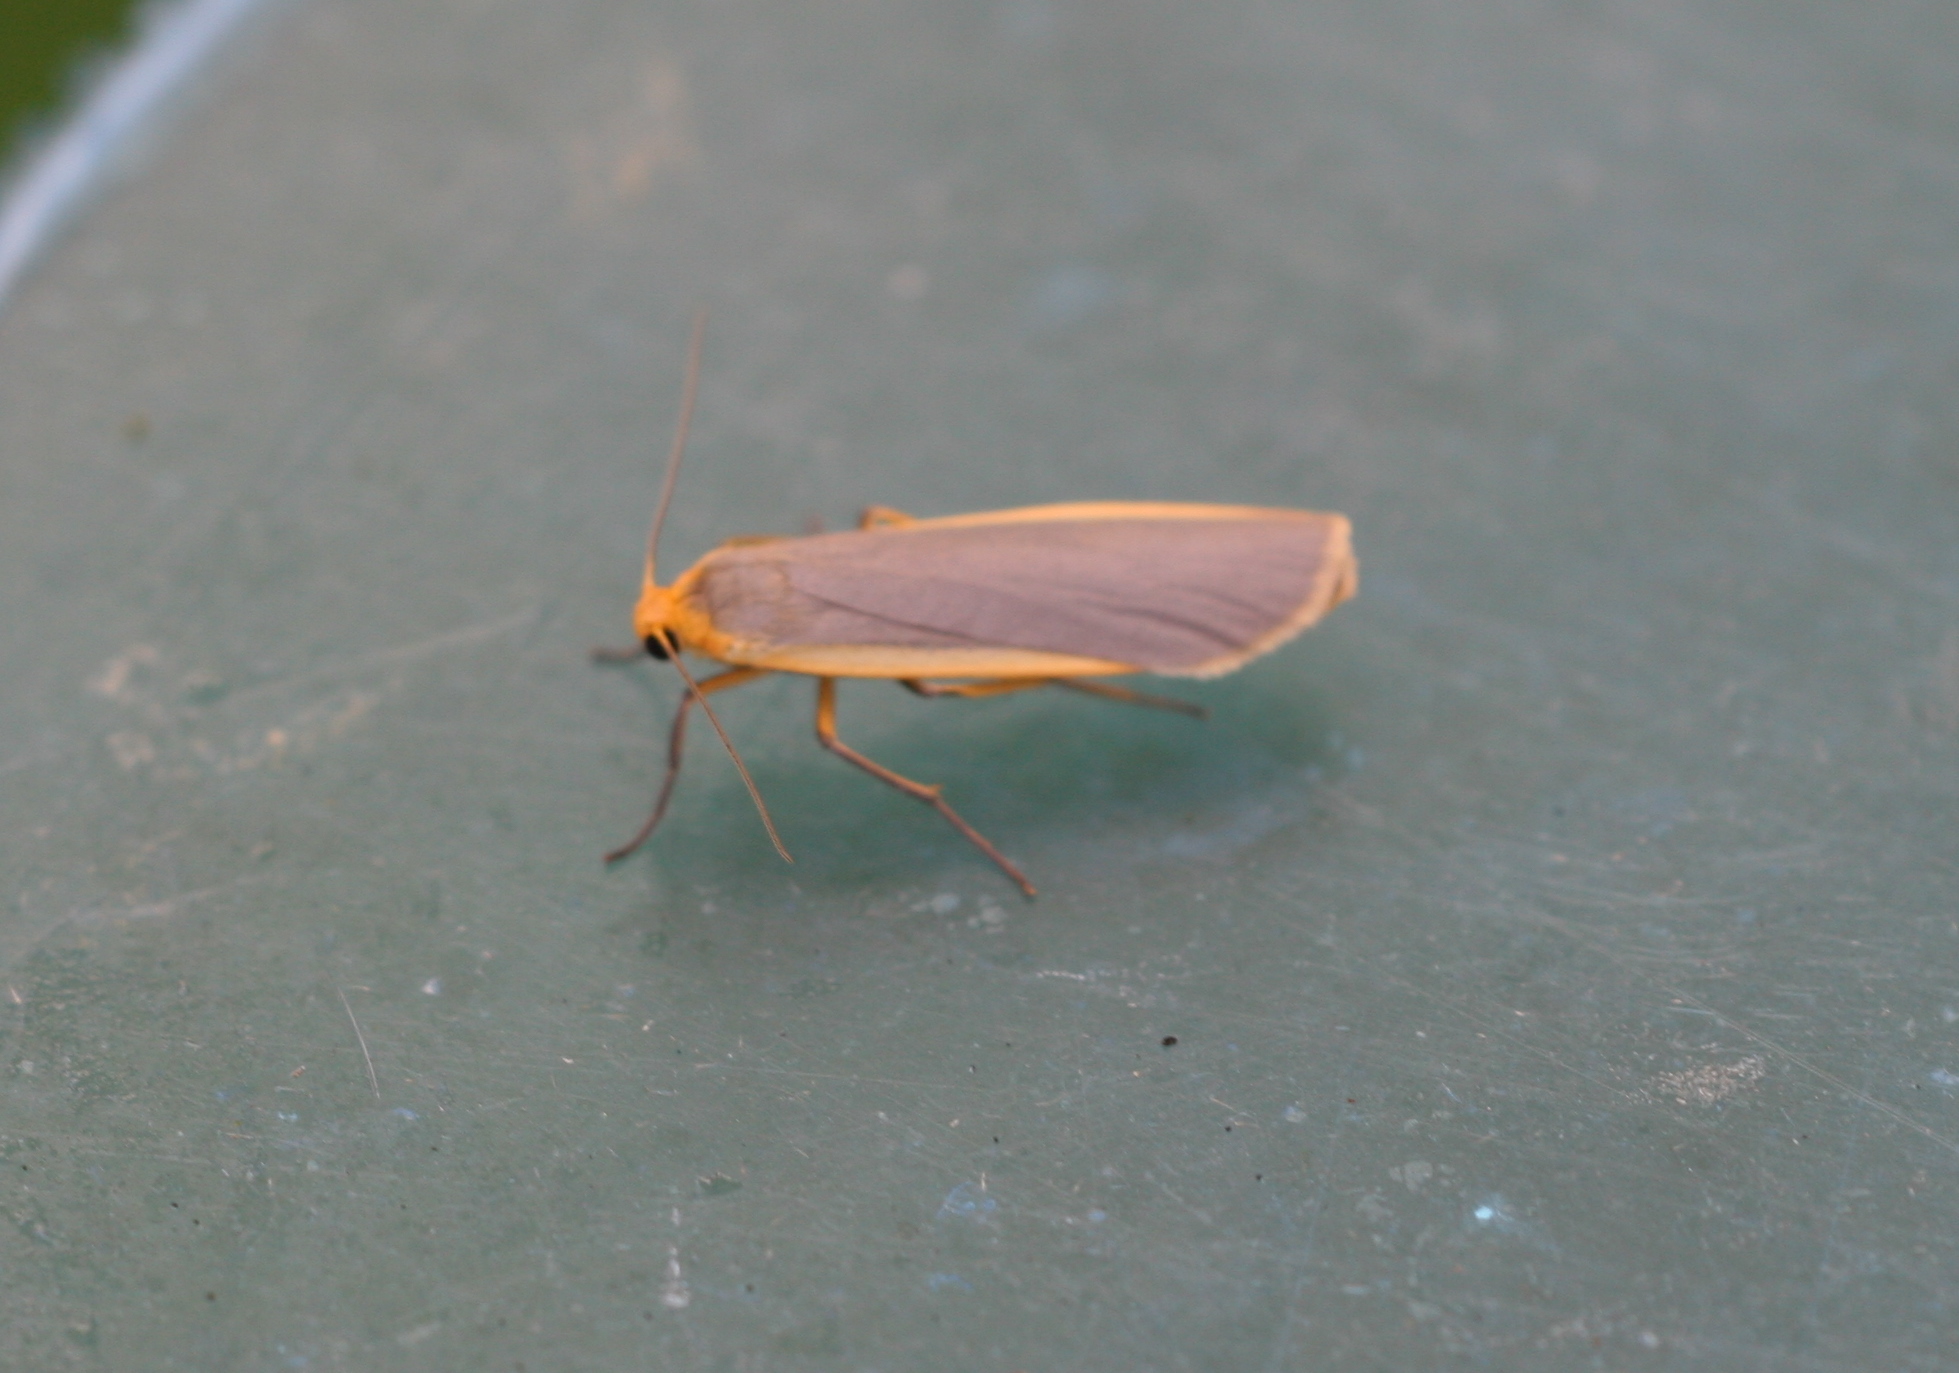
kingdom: Animalia
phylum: Arthropoda
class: Insecta
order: Lepidoptera
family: Erebidae
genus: Nyea
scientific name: Nyea lurideola
